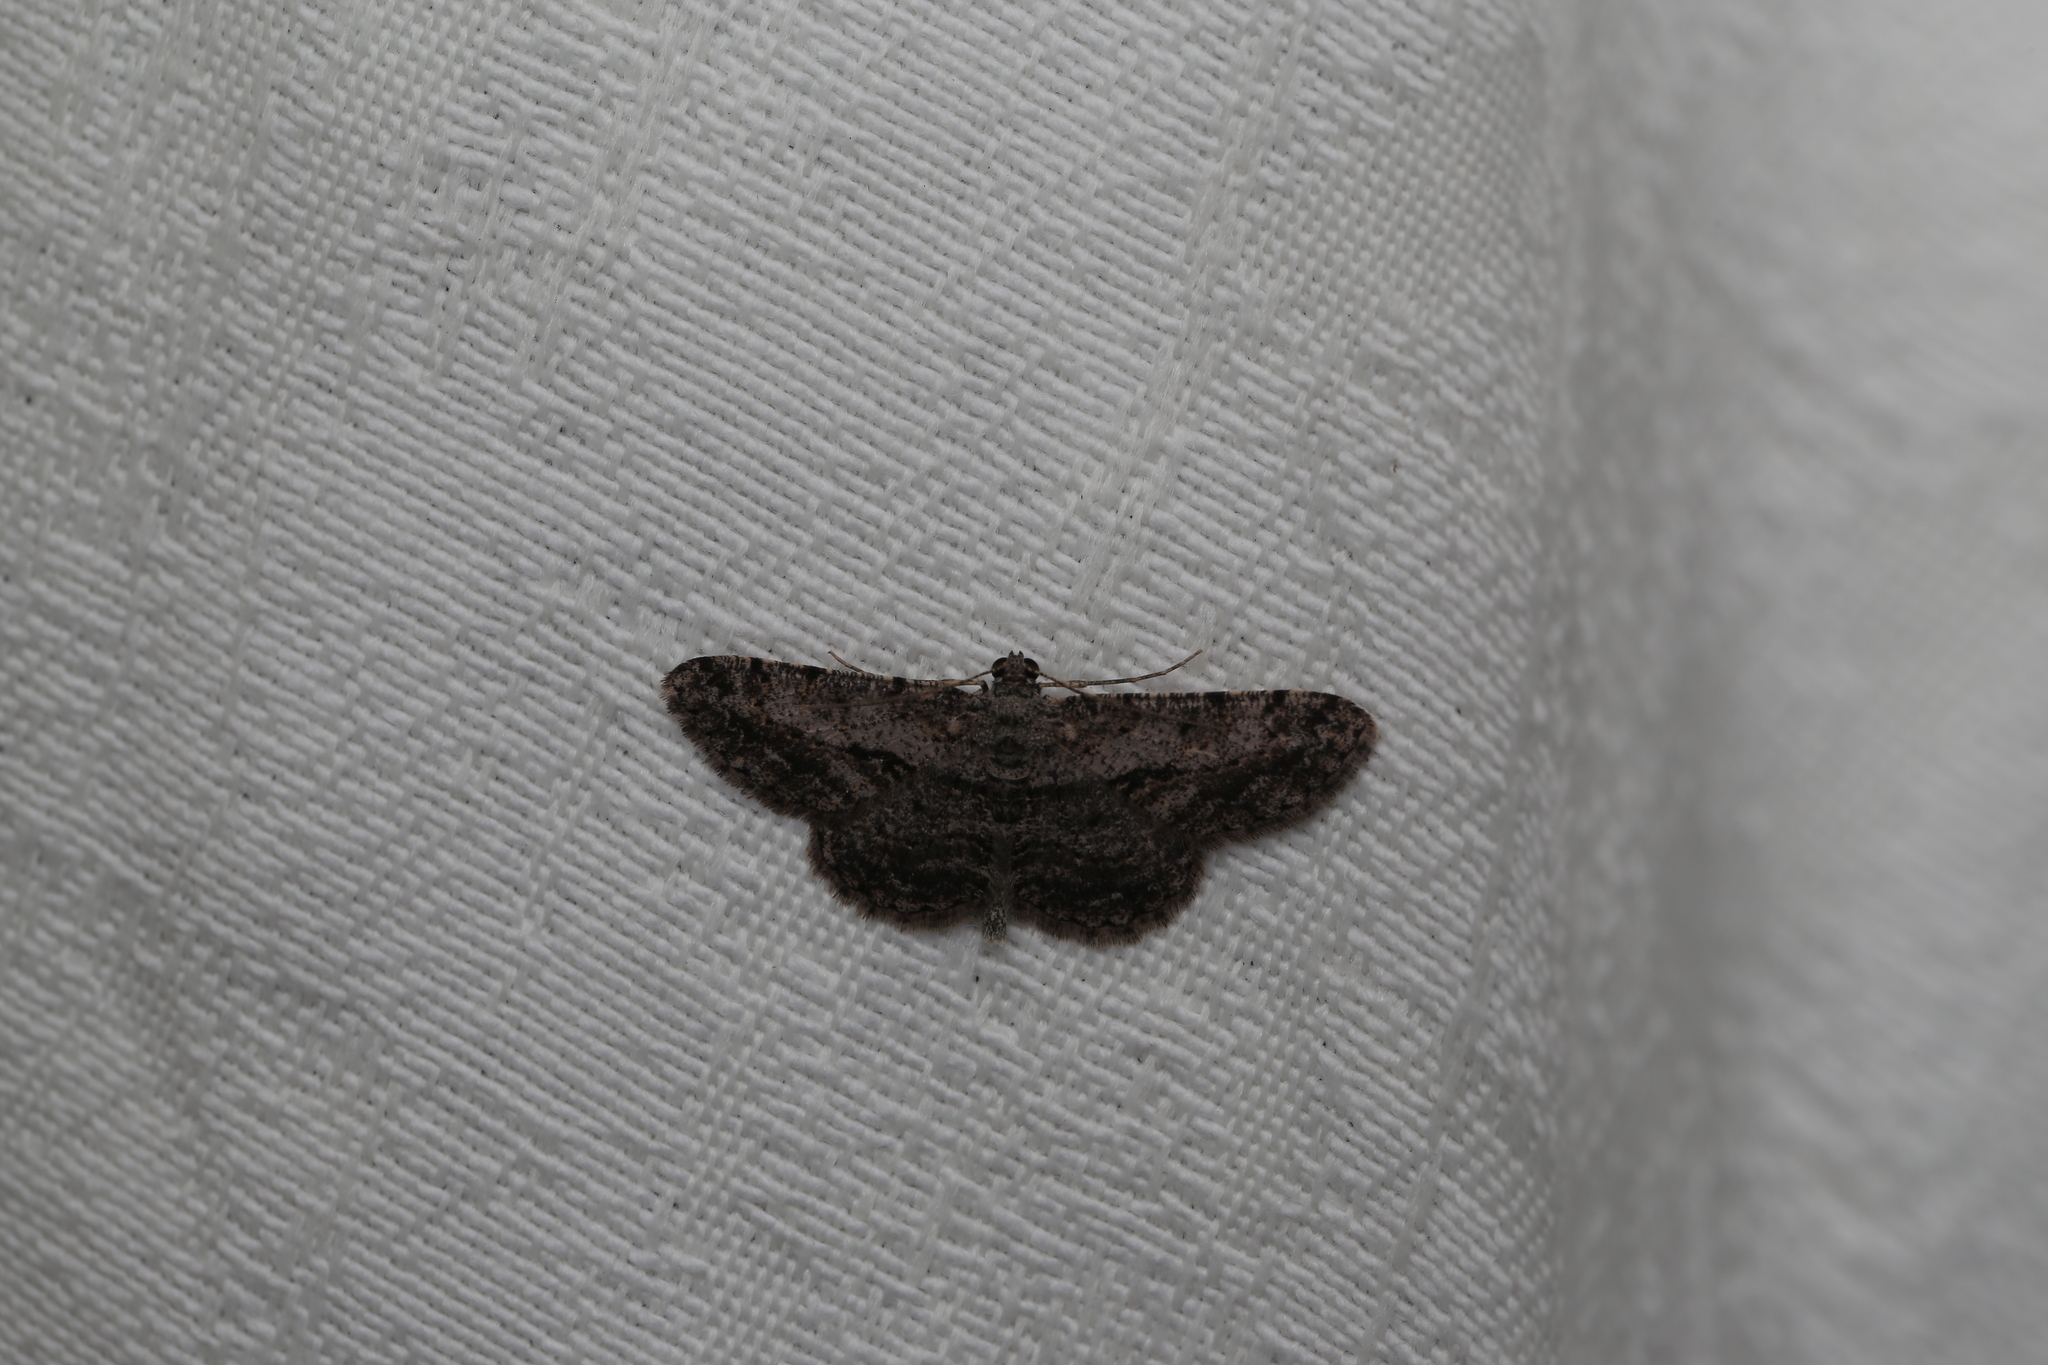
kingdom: Animalia
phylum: Arthropoda
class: Insecta
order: Lepidoptera
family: Geometridae
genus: Psilalcis
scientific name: Psilalcis isombra
